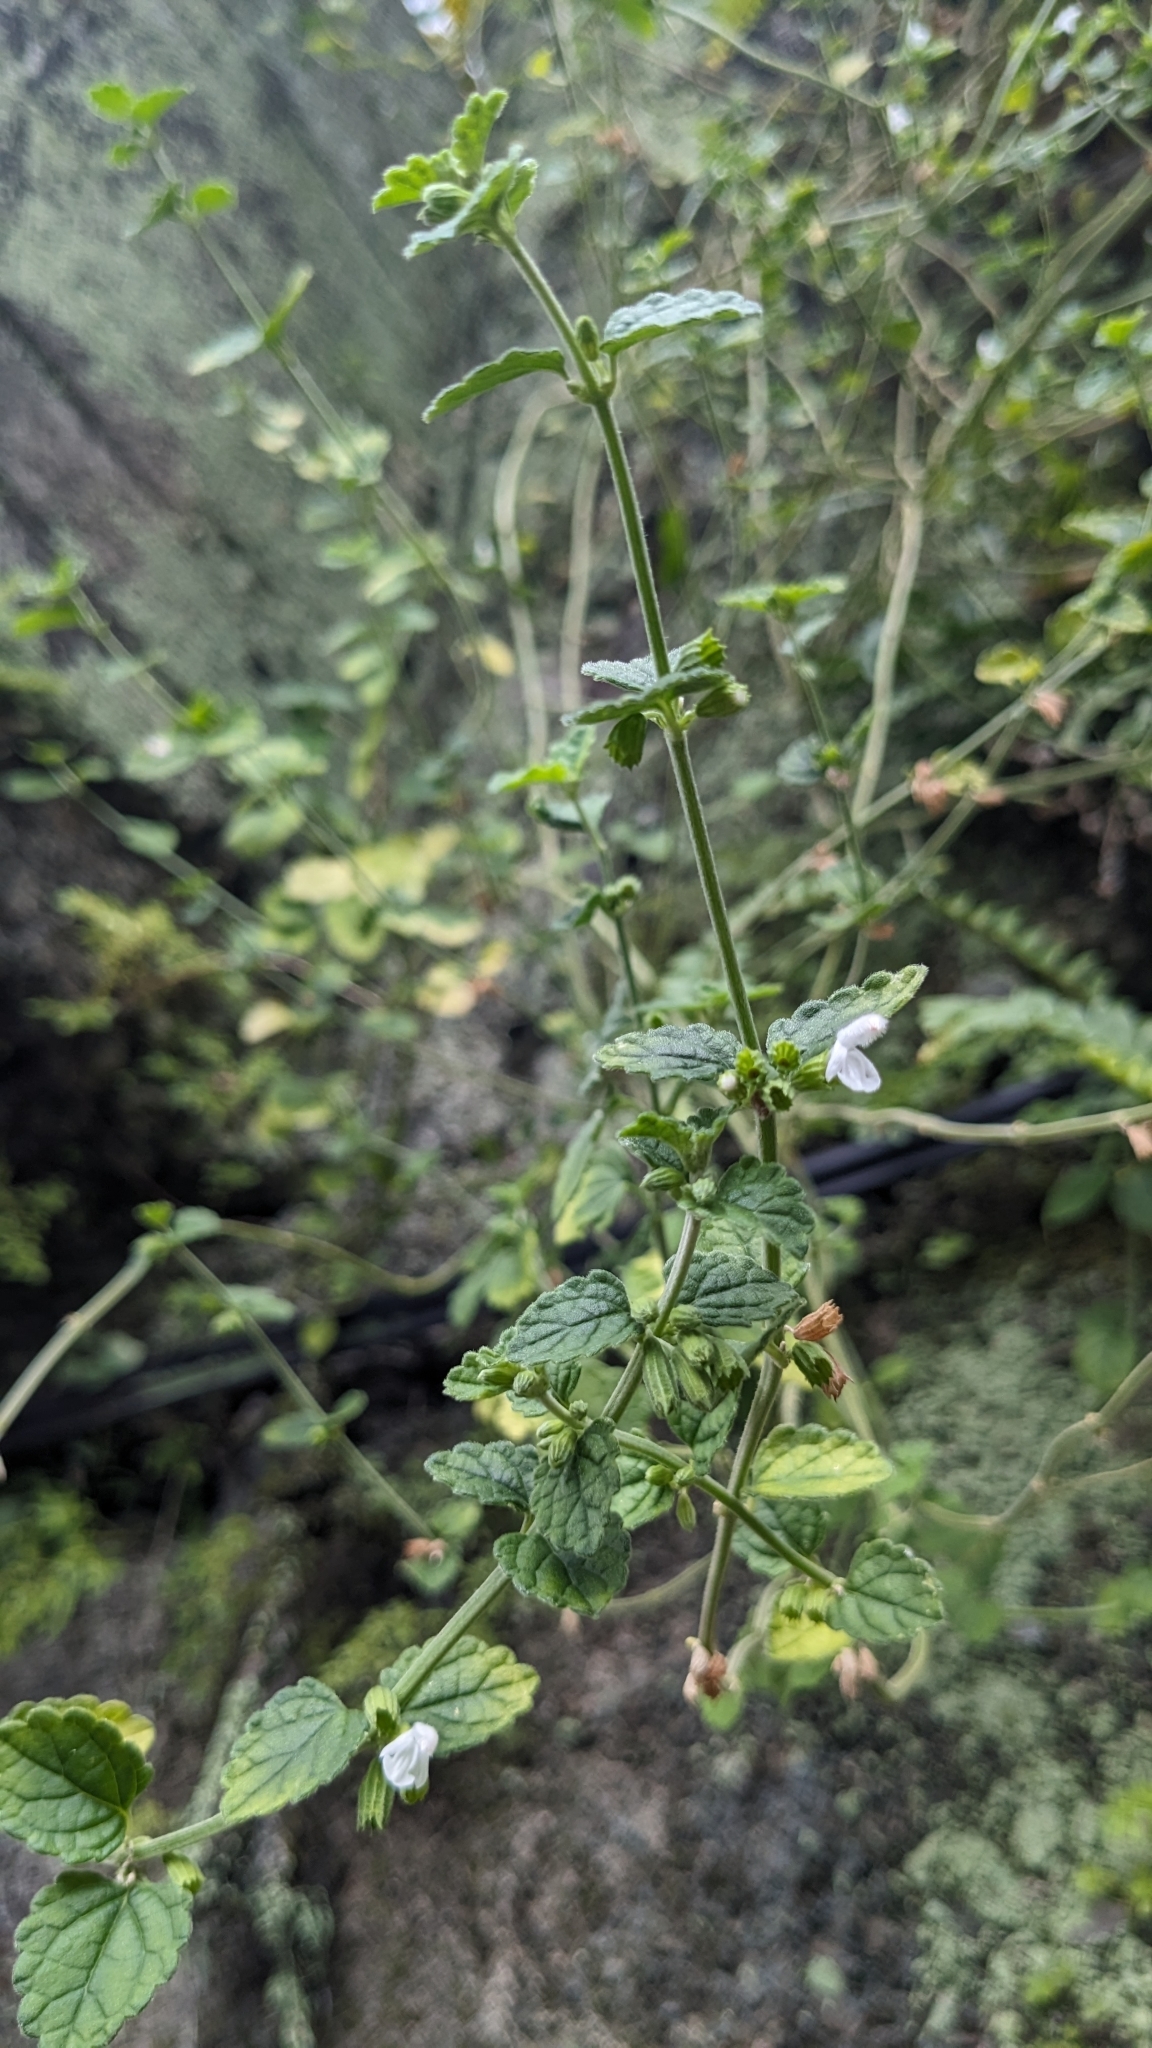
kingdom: Plantae
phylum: Tracheophyta
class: Magnoliopsida
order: Lamiales
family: Lamiaceae
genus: Leucas
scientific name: Leucas chinensis
